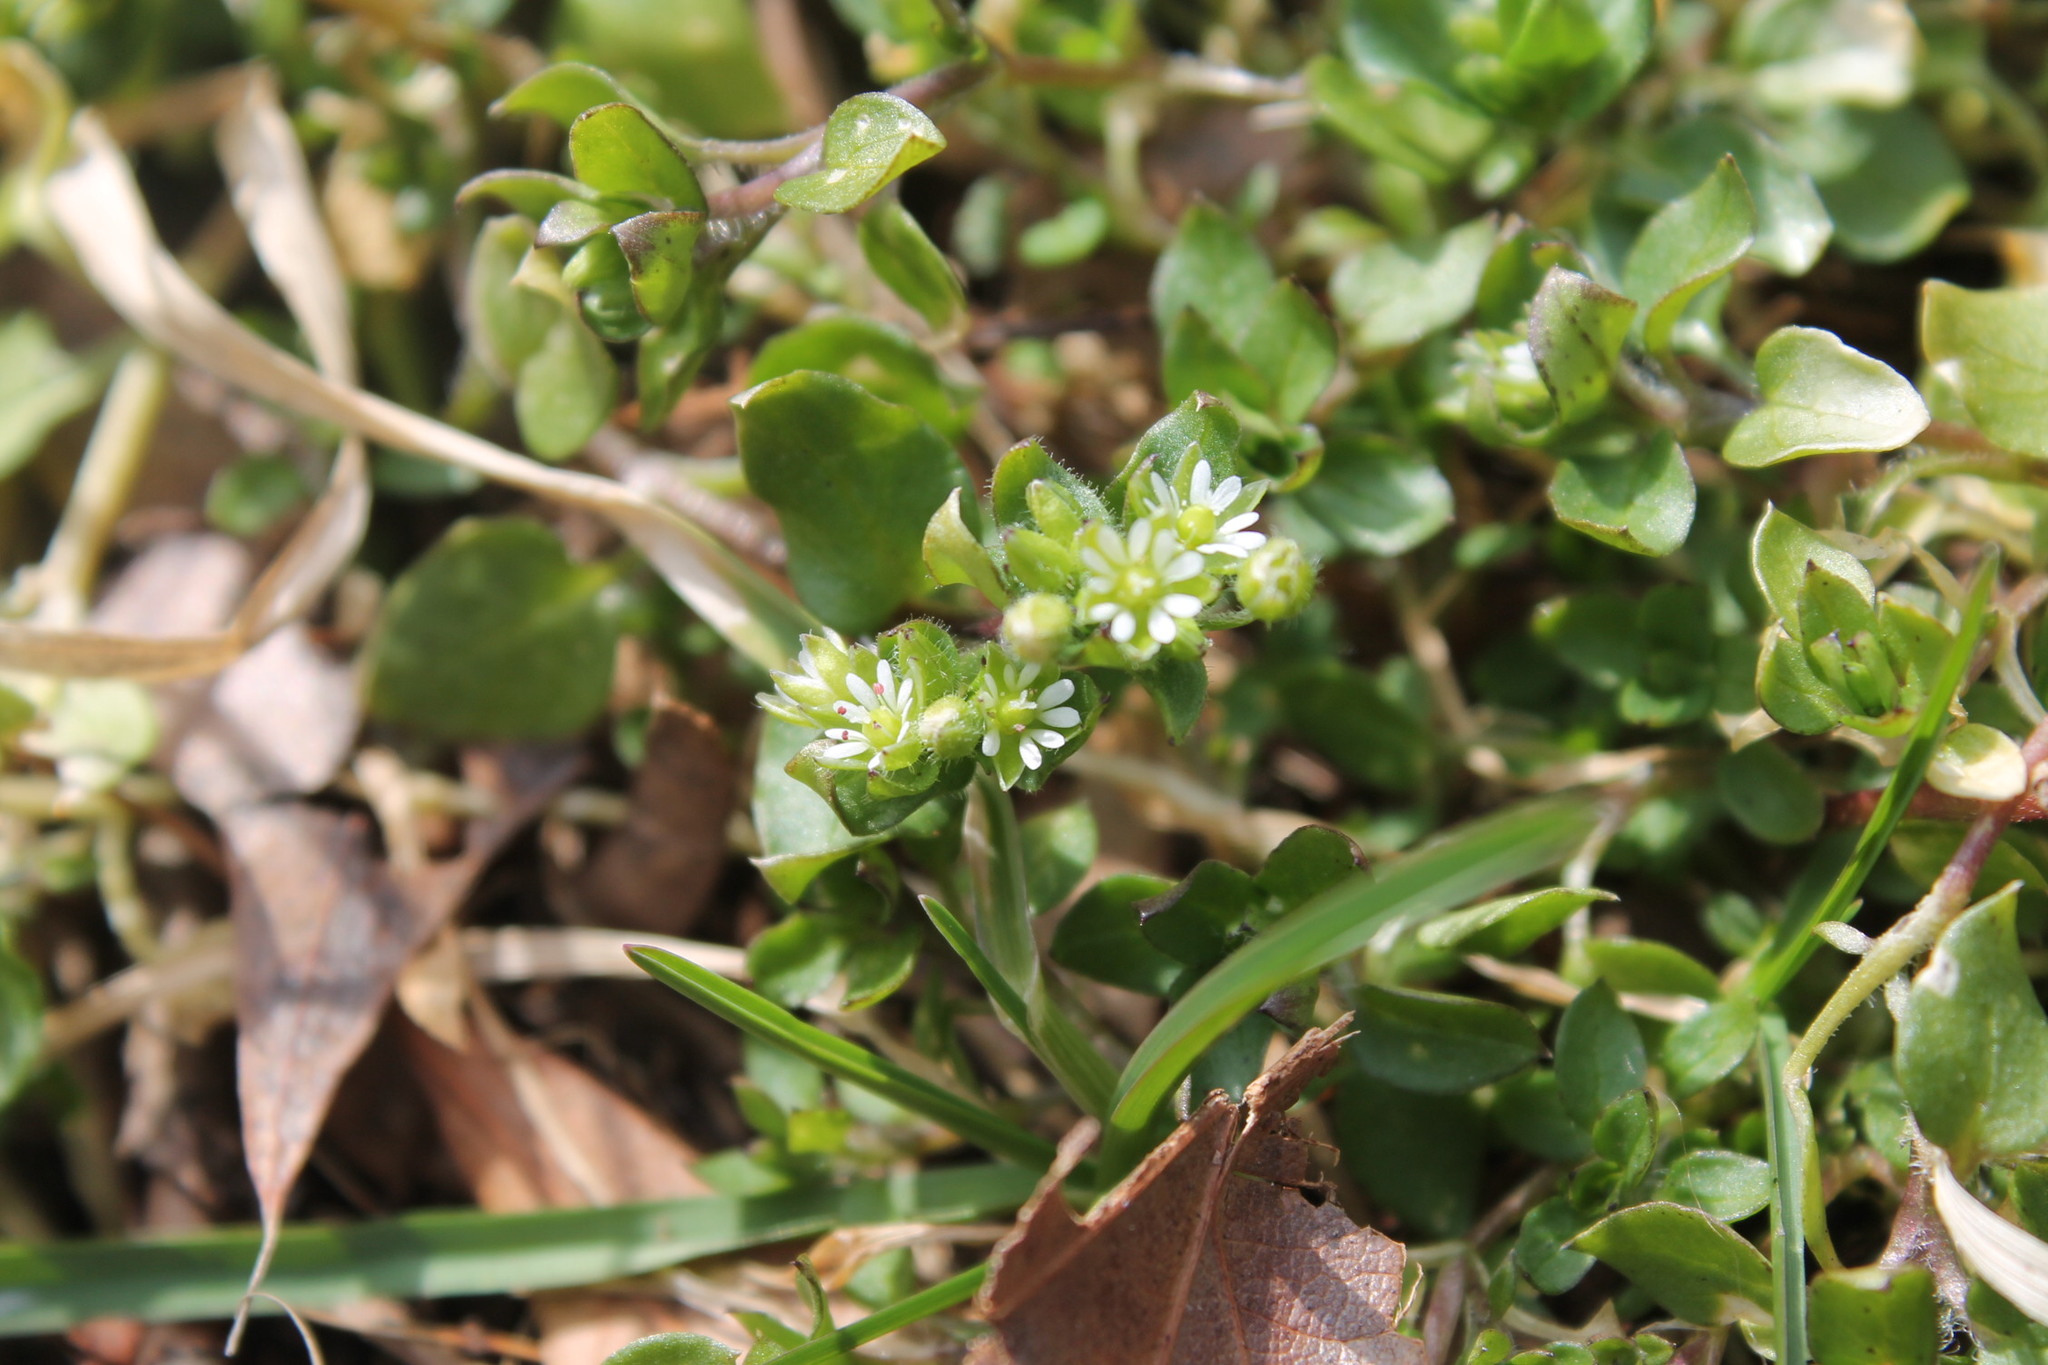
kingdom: Plantae
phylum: Tracheophyta
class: Magnoliopsida
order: Caryophyllales
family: Caryophyllaceae
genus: Stellaria
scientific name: Stellaria media
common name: Common chickweed
